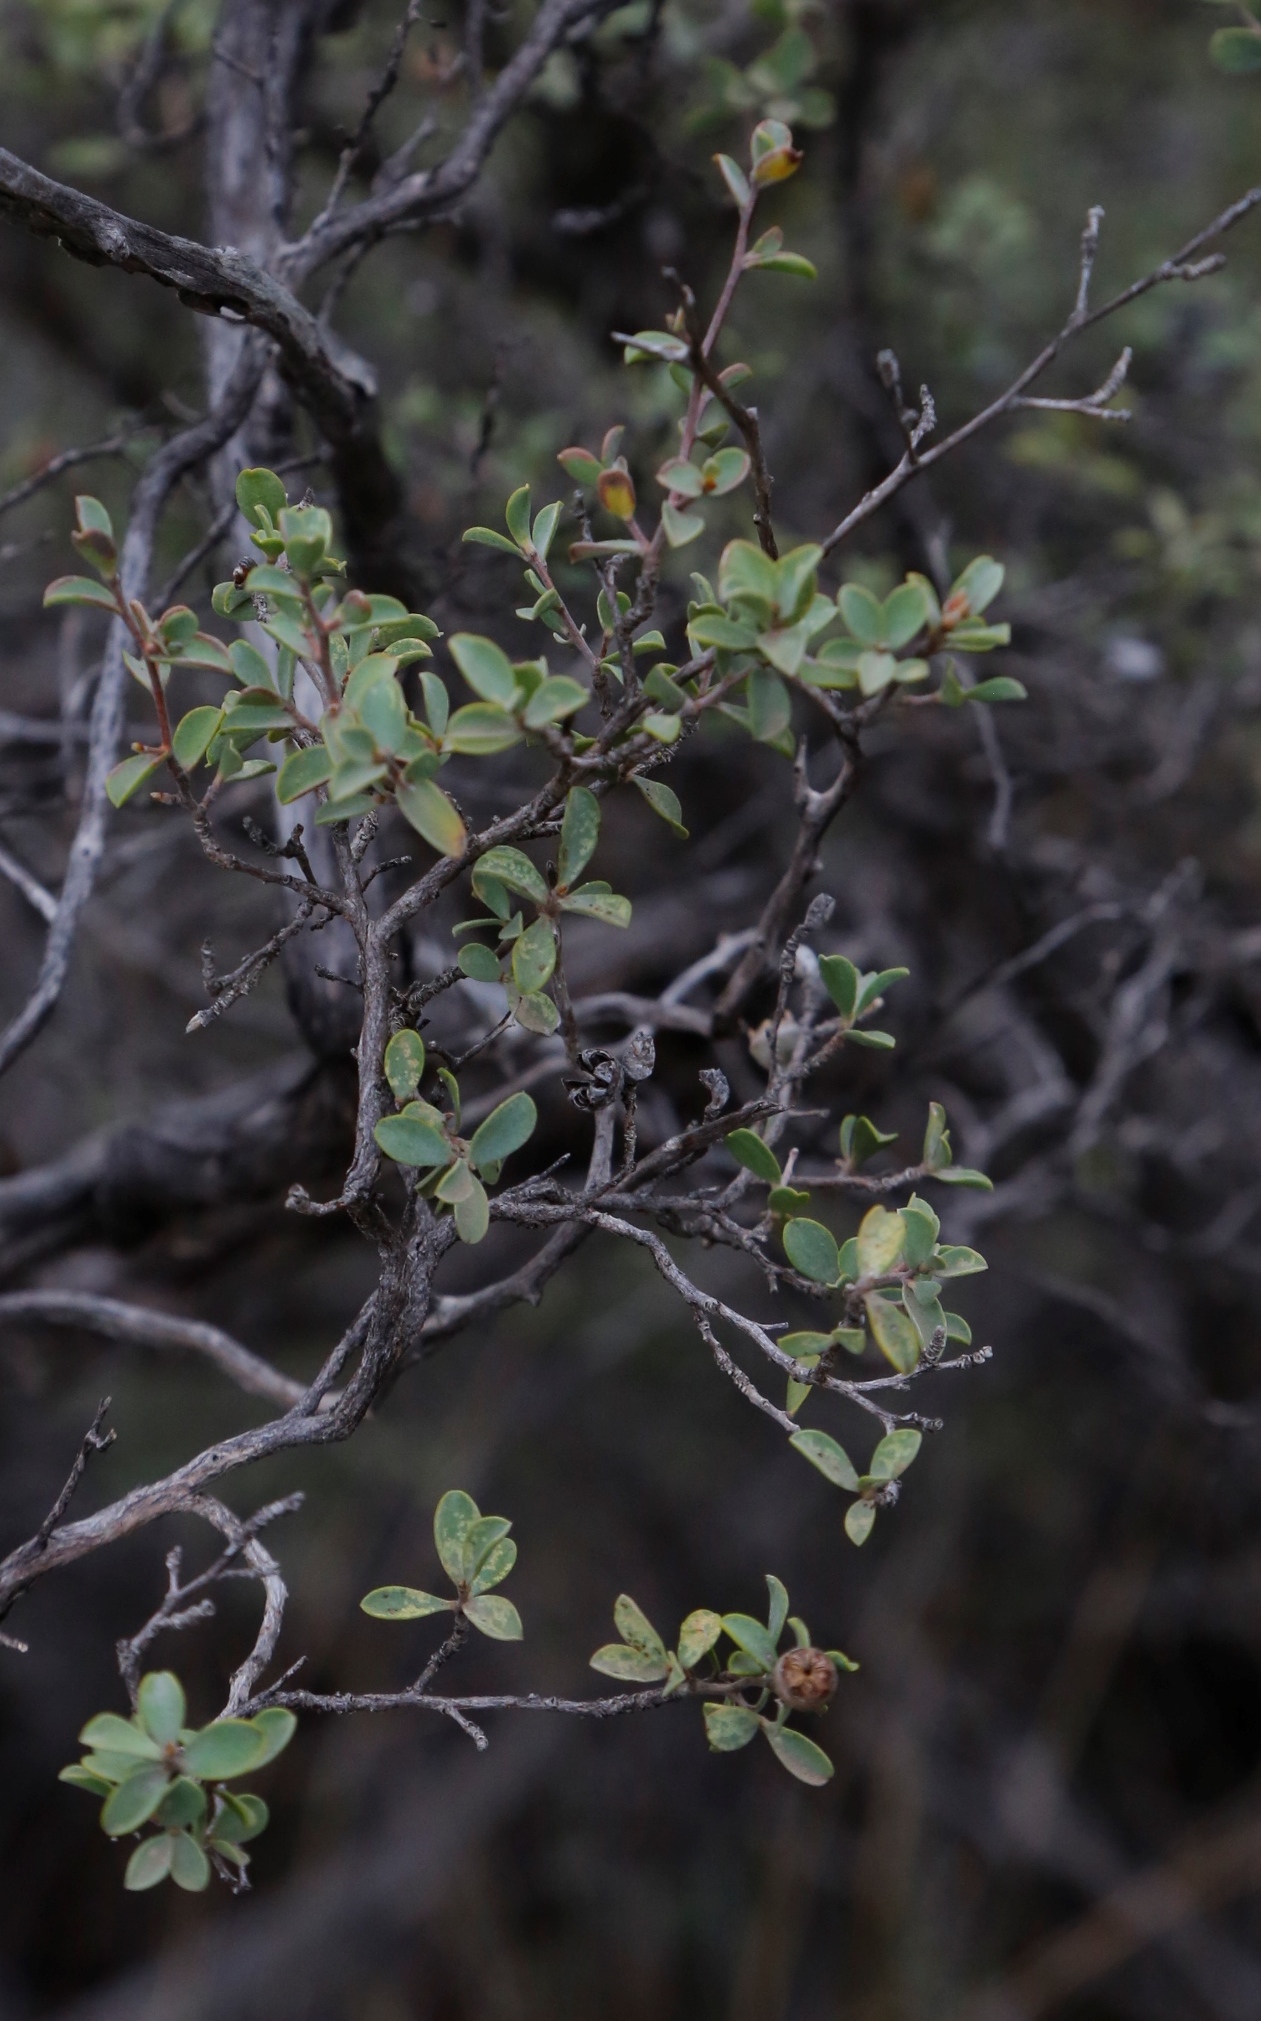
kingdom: Plantae
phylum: Tracheophyta
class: Magnoliopsida
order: Myrtales
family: Myrtaceae
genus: Leptospermum
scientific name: Leptospermum erubescens
